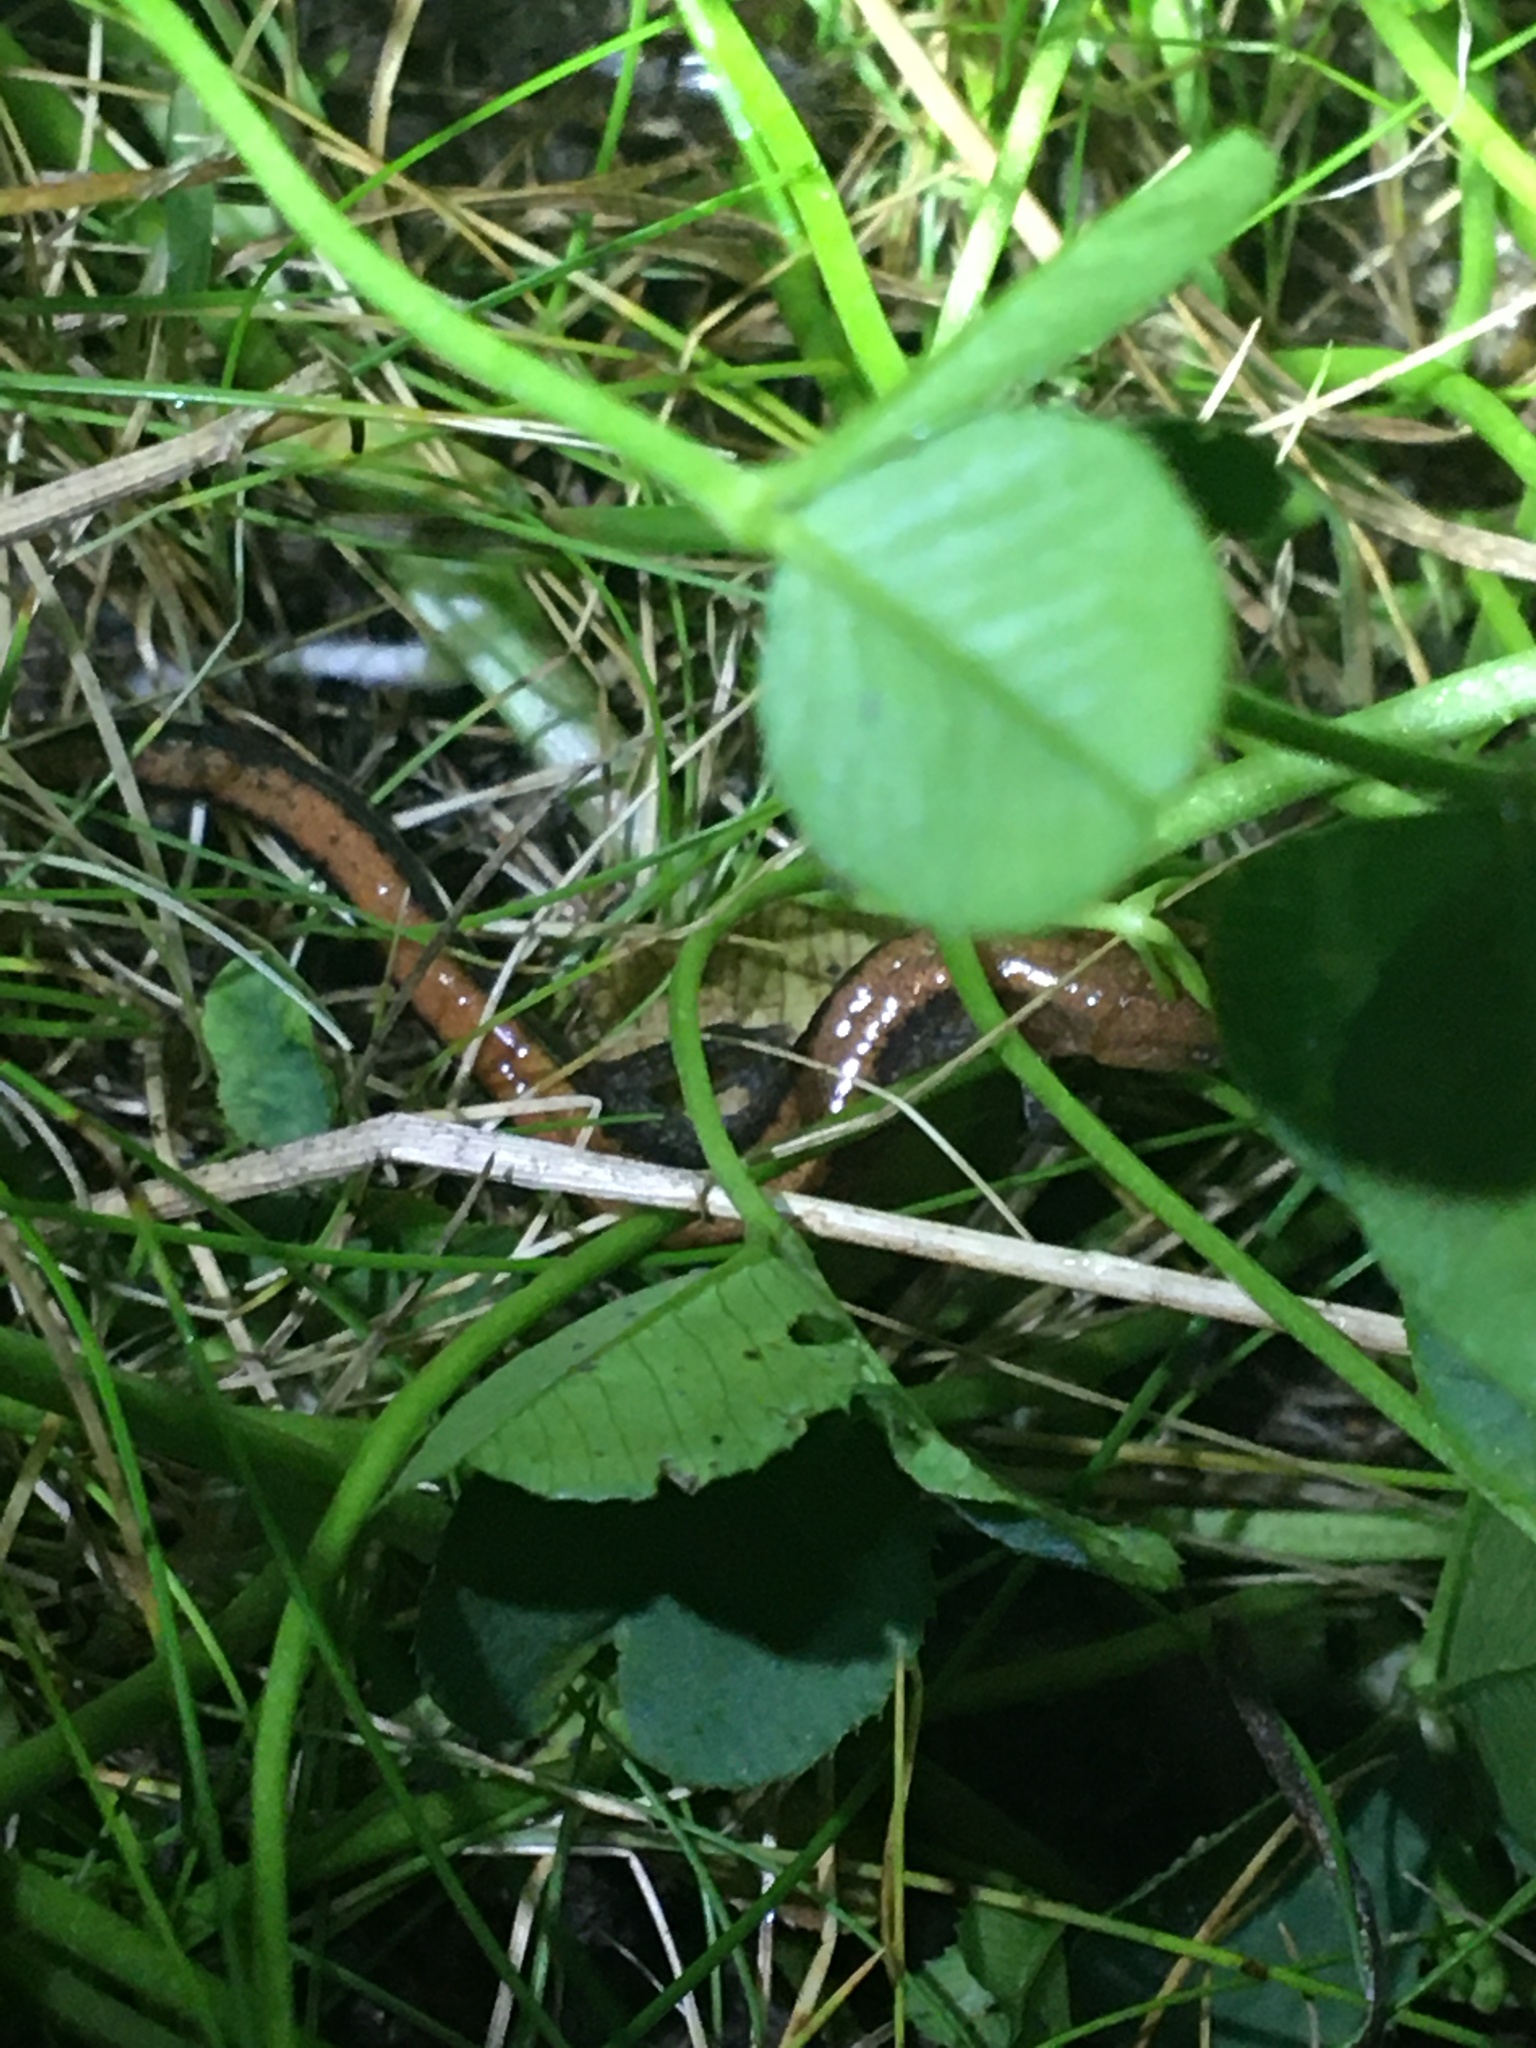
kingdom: Animalia
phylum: Chordata
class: Amphibia
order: Caudata
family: Plethodontidae
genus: Plethodon
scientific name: Plethodon cinereus
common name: Redback salamander
